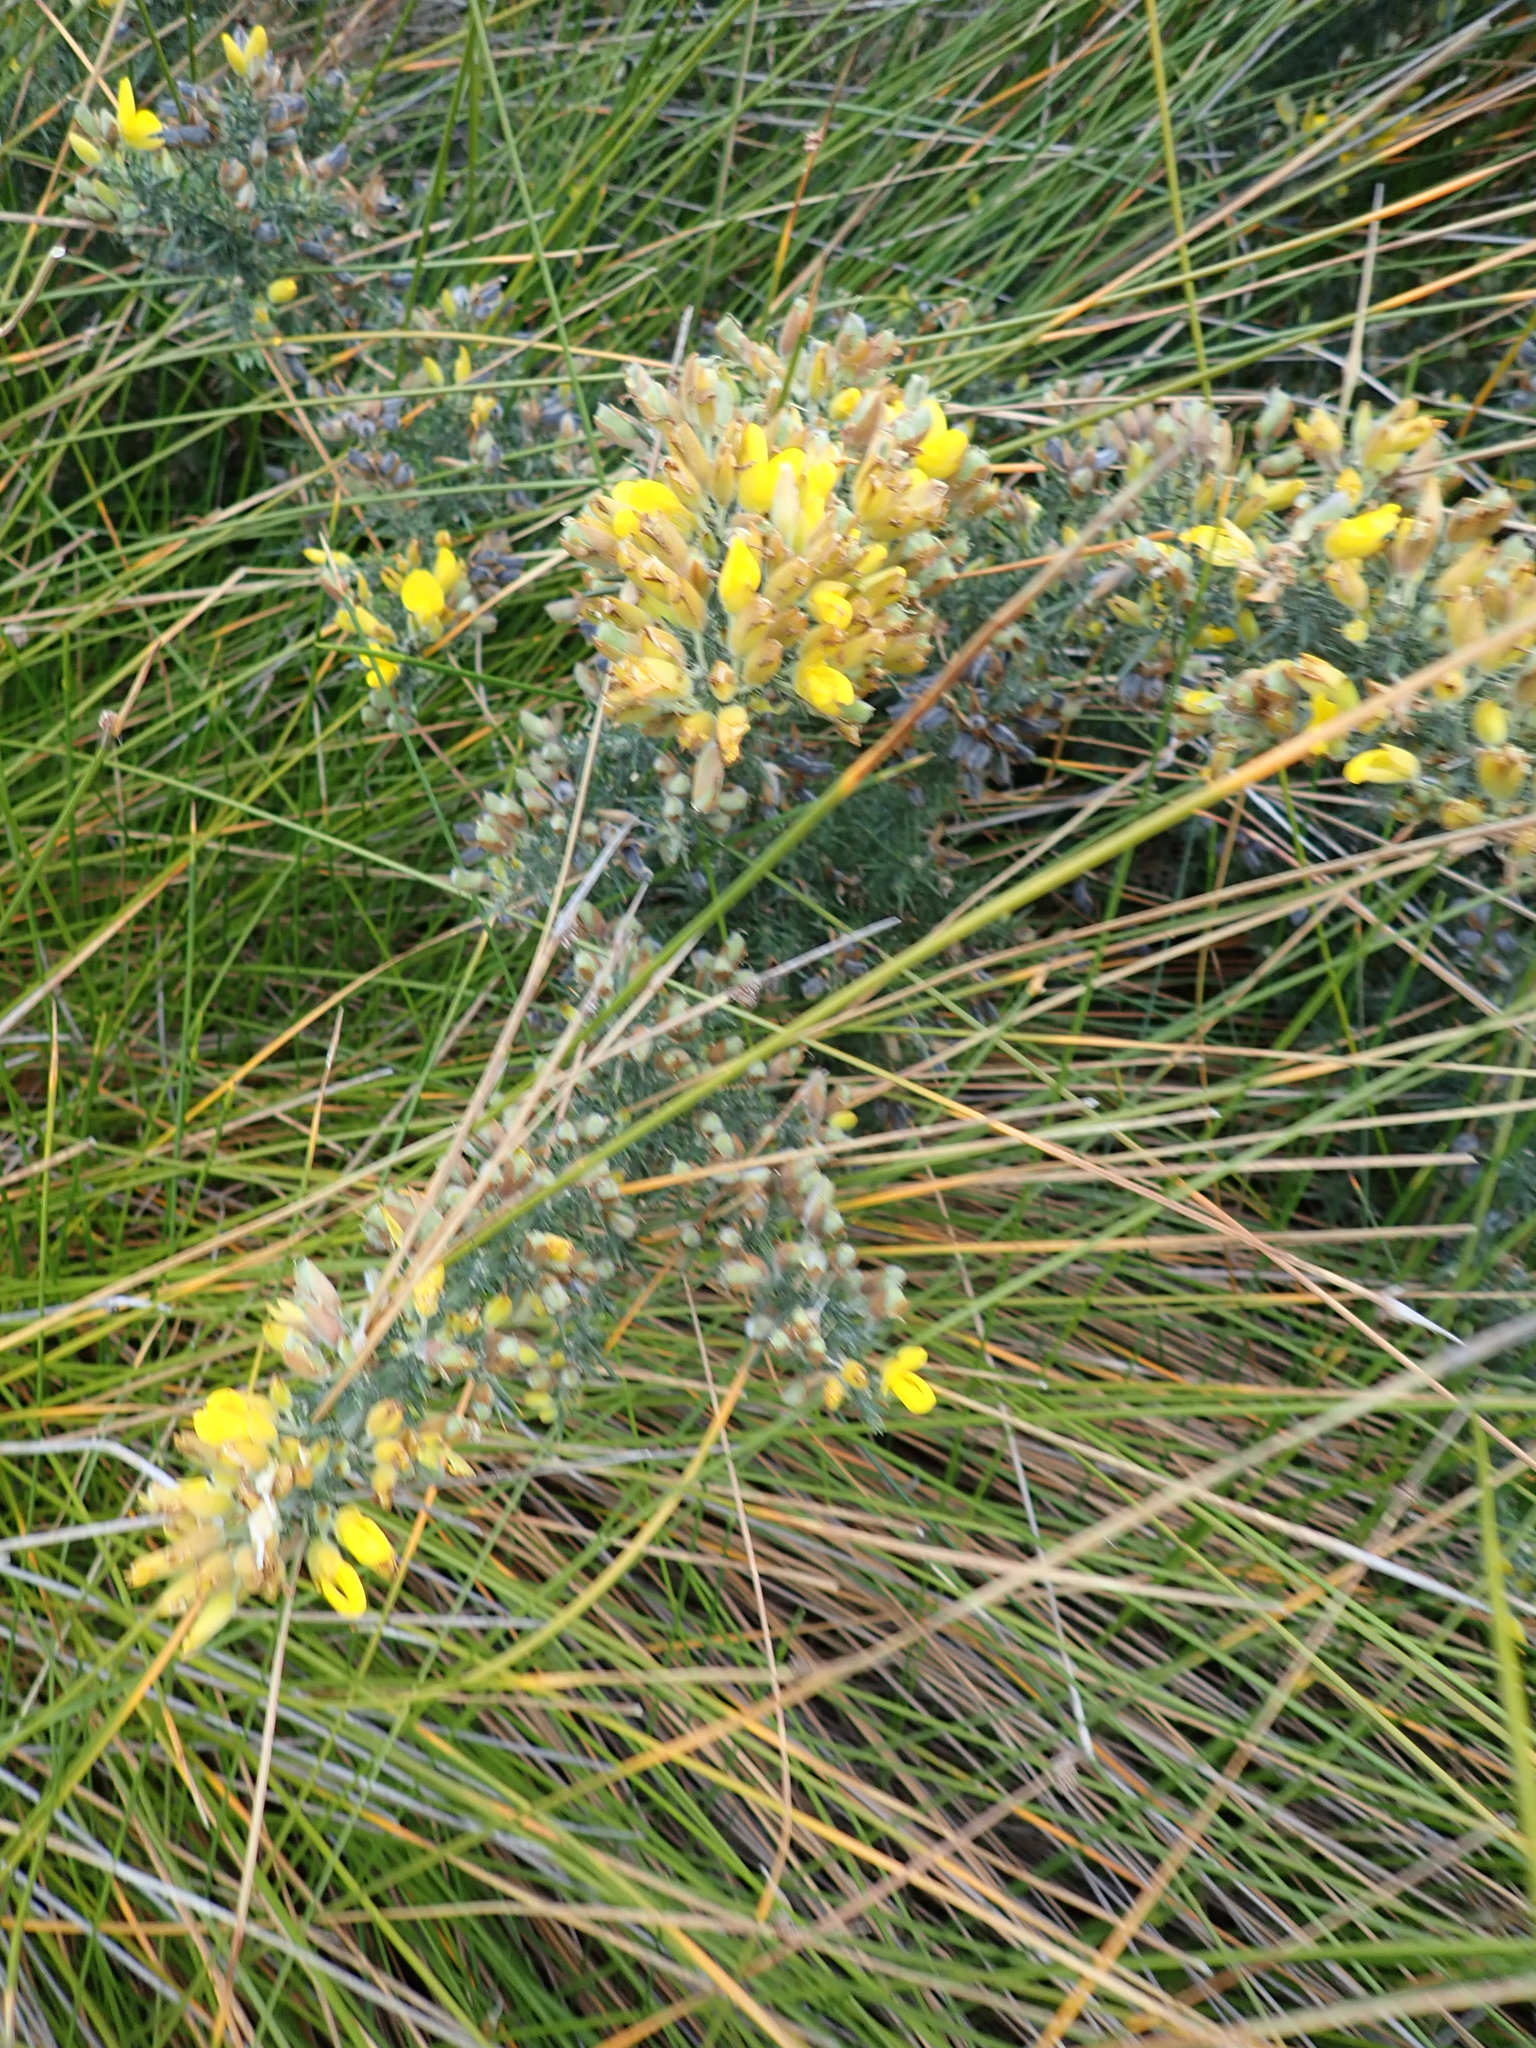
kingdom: Plantae
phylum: Tracheophyta
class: Magnoliopsida
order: Fabales
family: Fabaceae
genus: Ulex
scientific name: Ulex europaeus
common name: Common gorse
